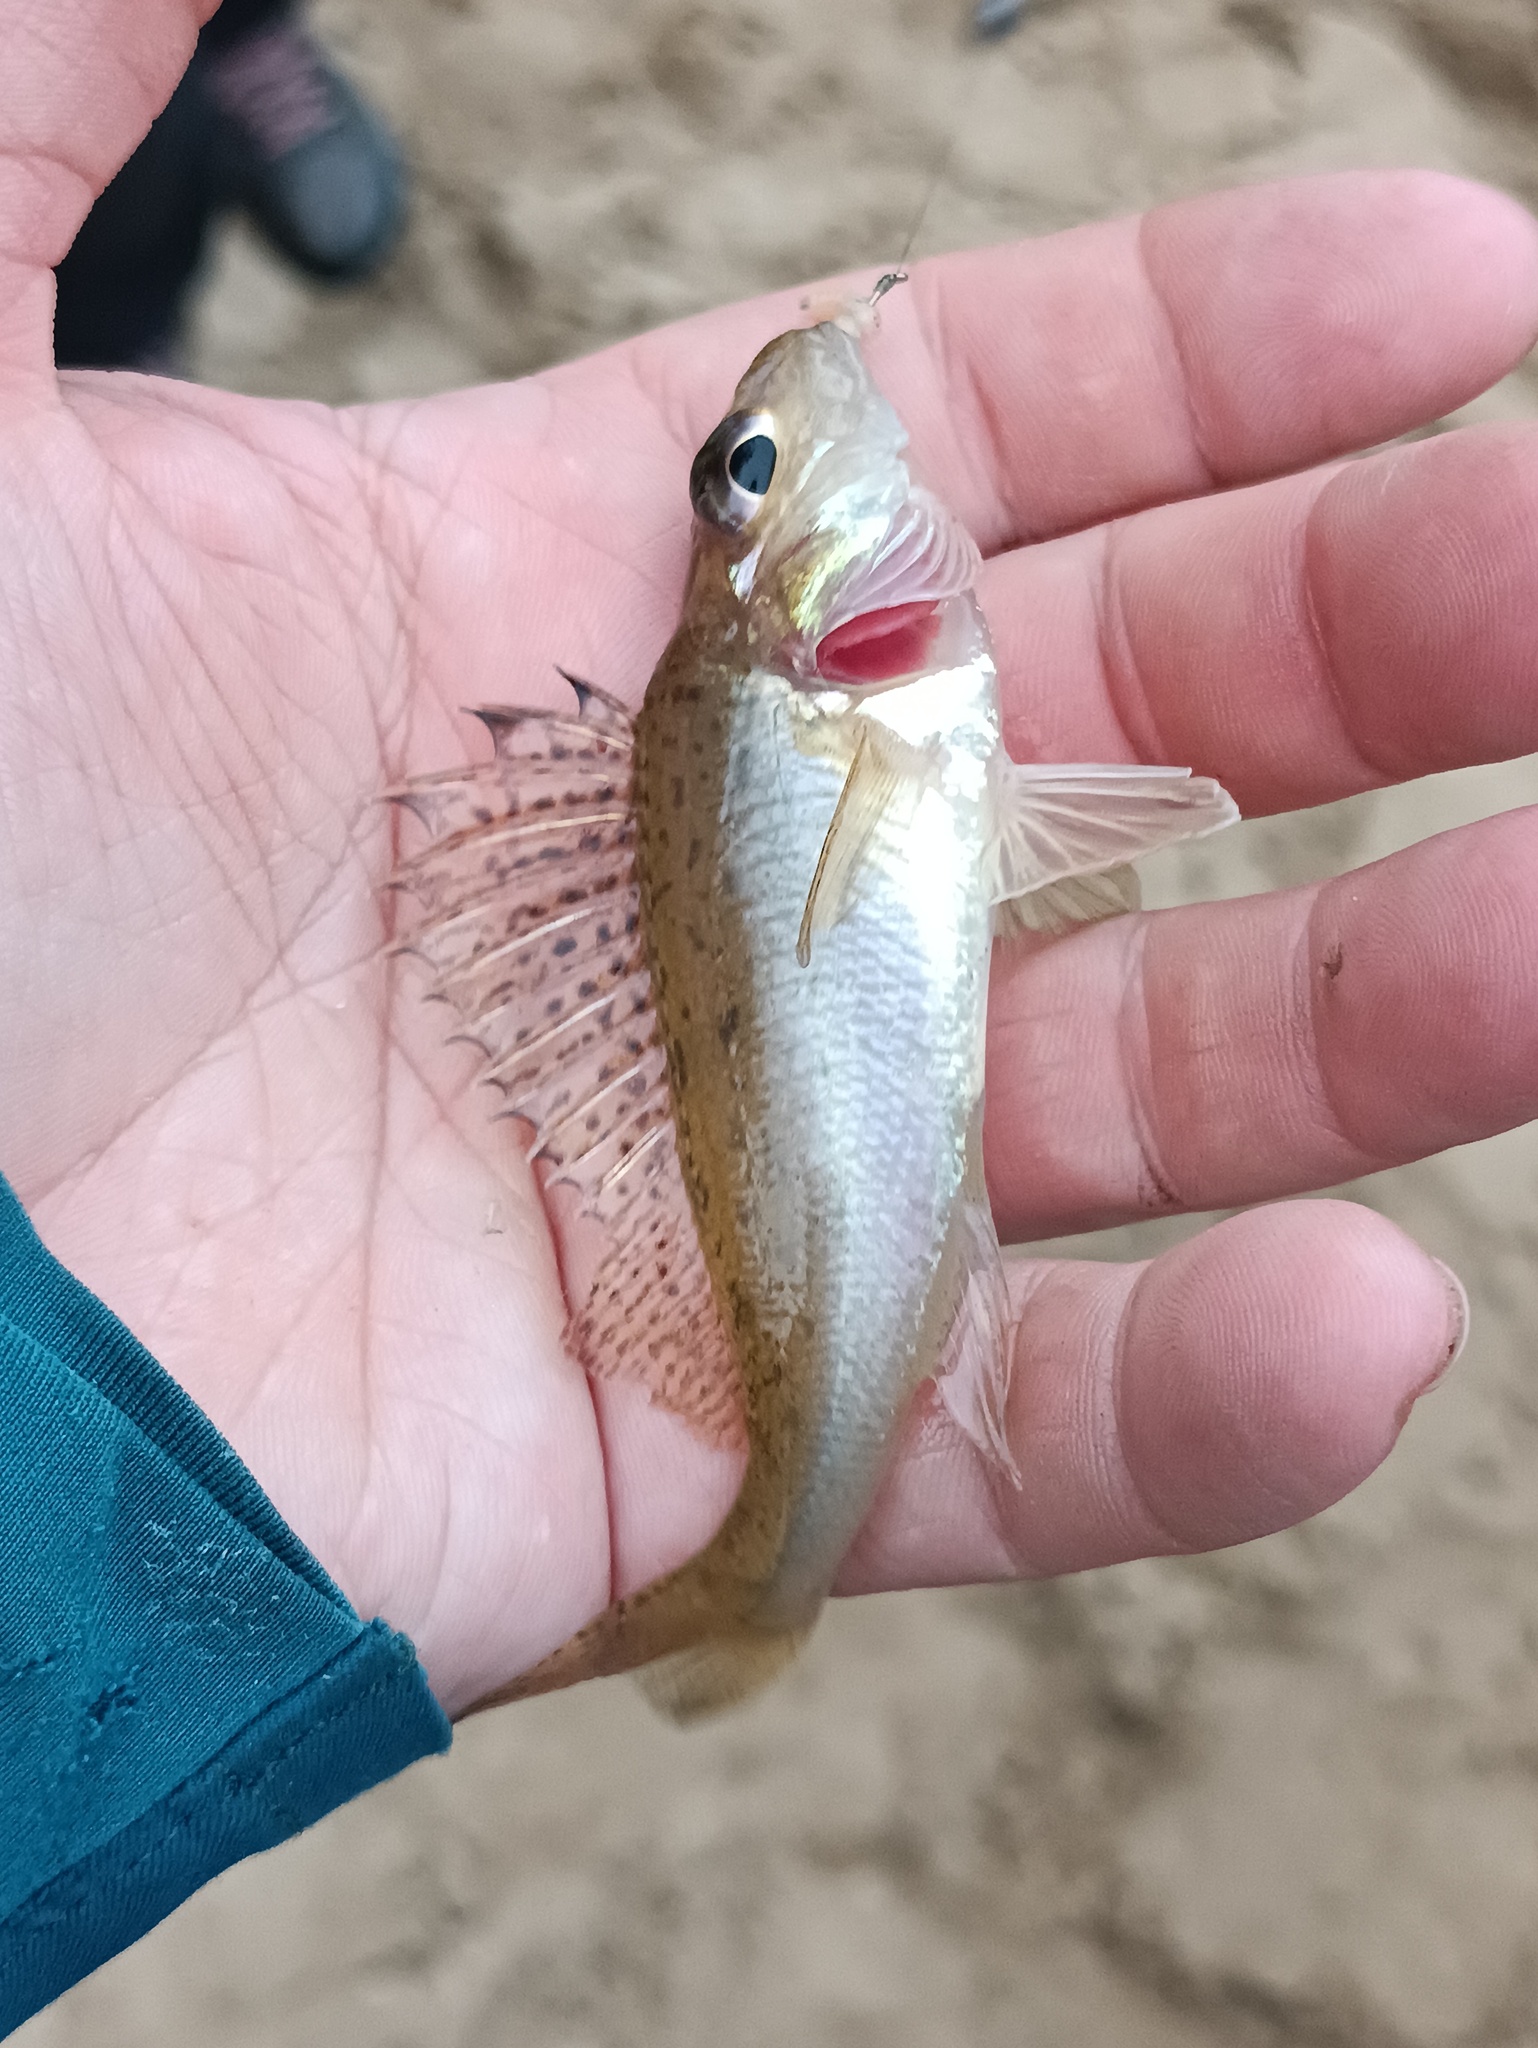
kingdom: Animalia
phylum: Chordata
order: Perciformes
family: Percidae
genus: Gymnocephalus
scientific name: Gymnocephalus cernua
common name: Ruffe
